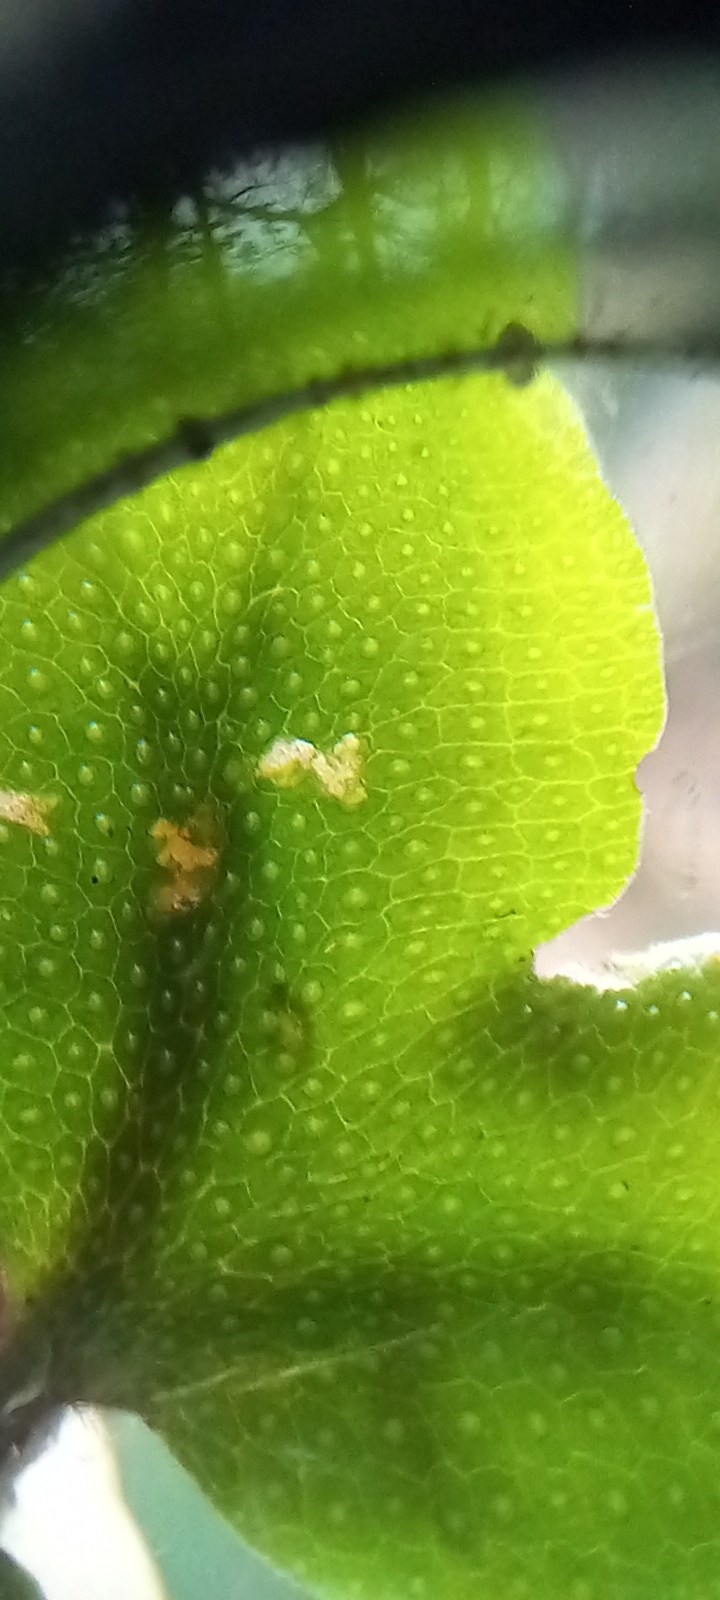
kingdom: Plantae
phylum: Marchantiophyta
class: Marchantiopsida
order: Marchantiales
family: Conocephalaceae
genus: Conocephalum
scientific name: Conocephalum conicum
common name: Great scented liverwort
